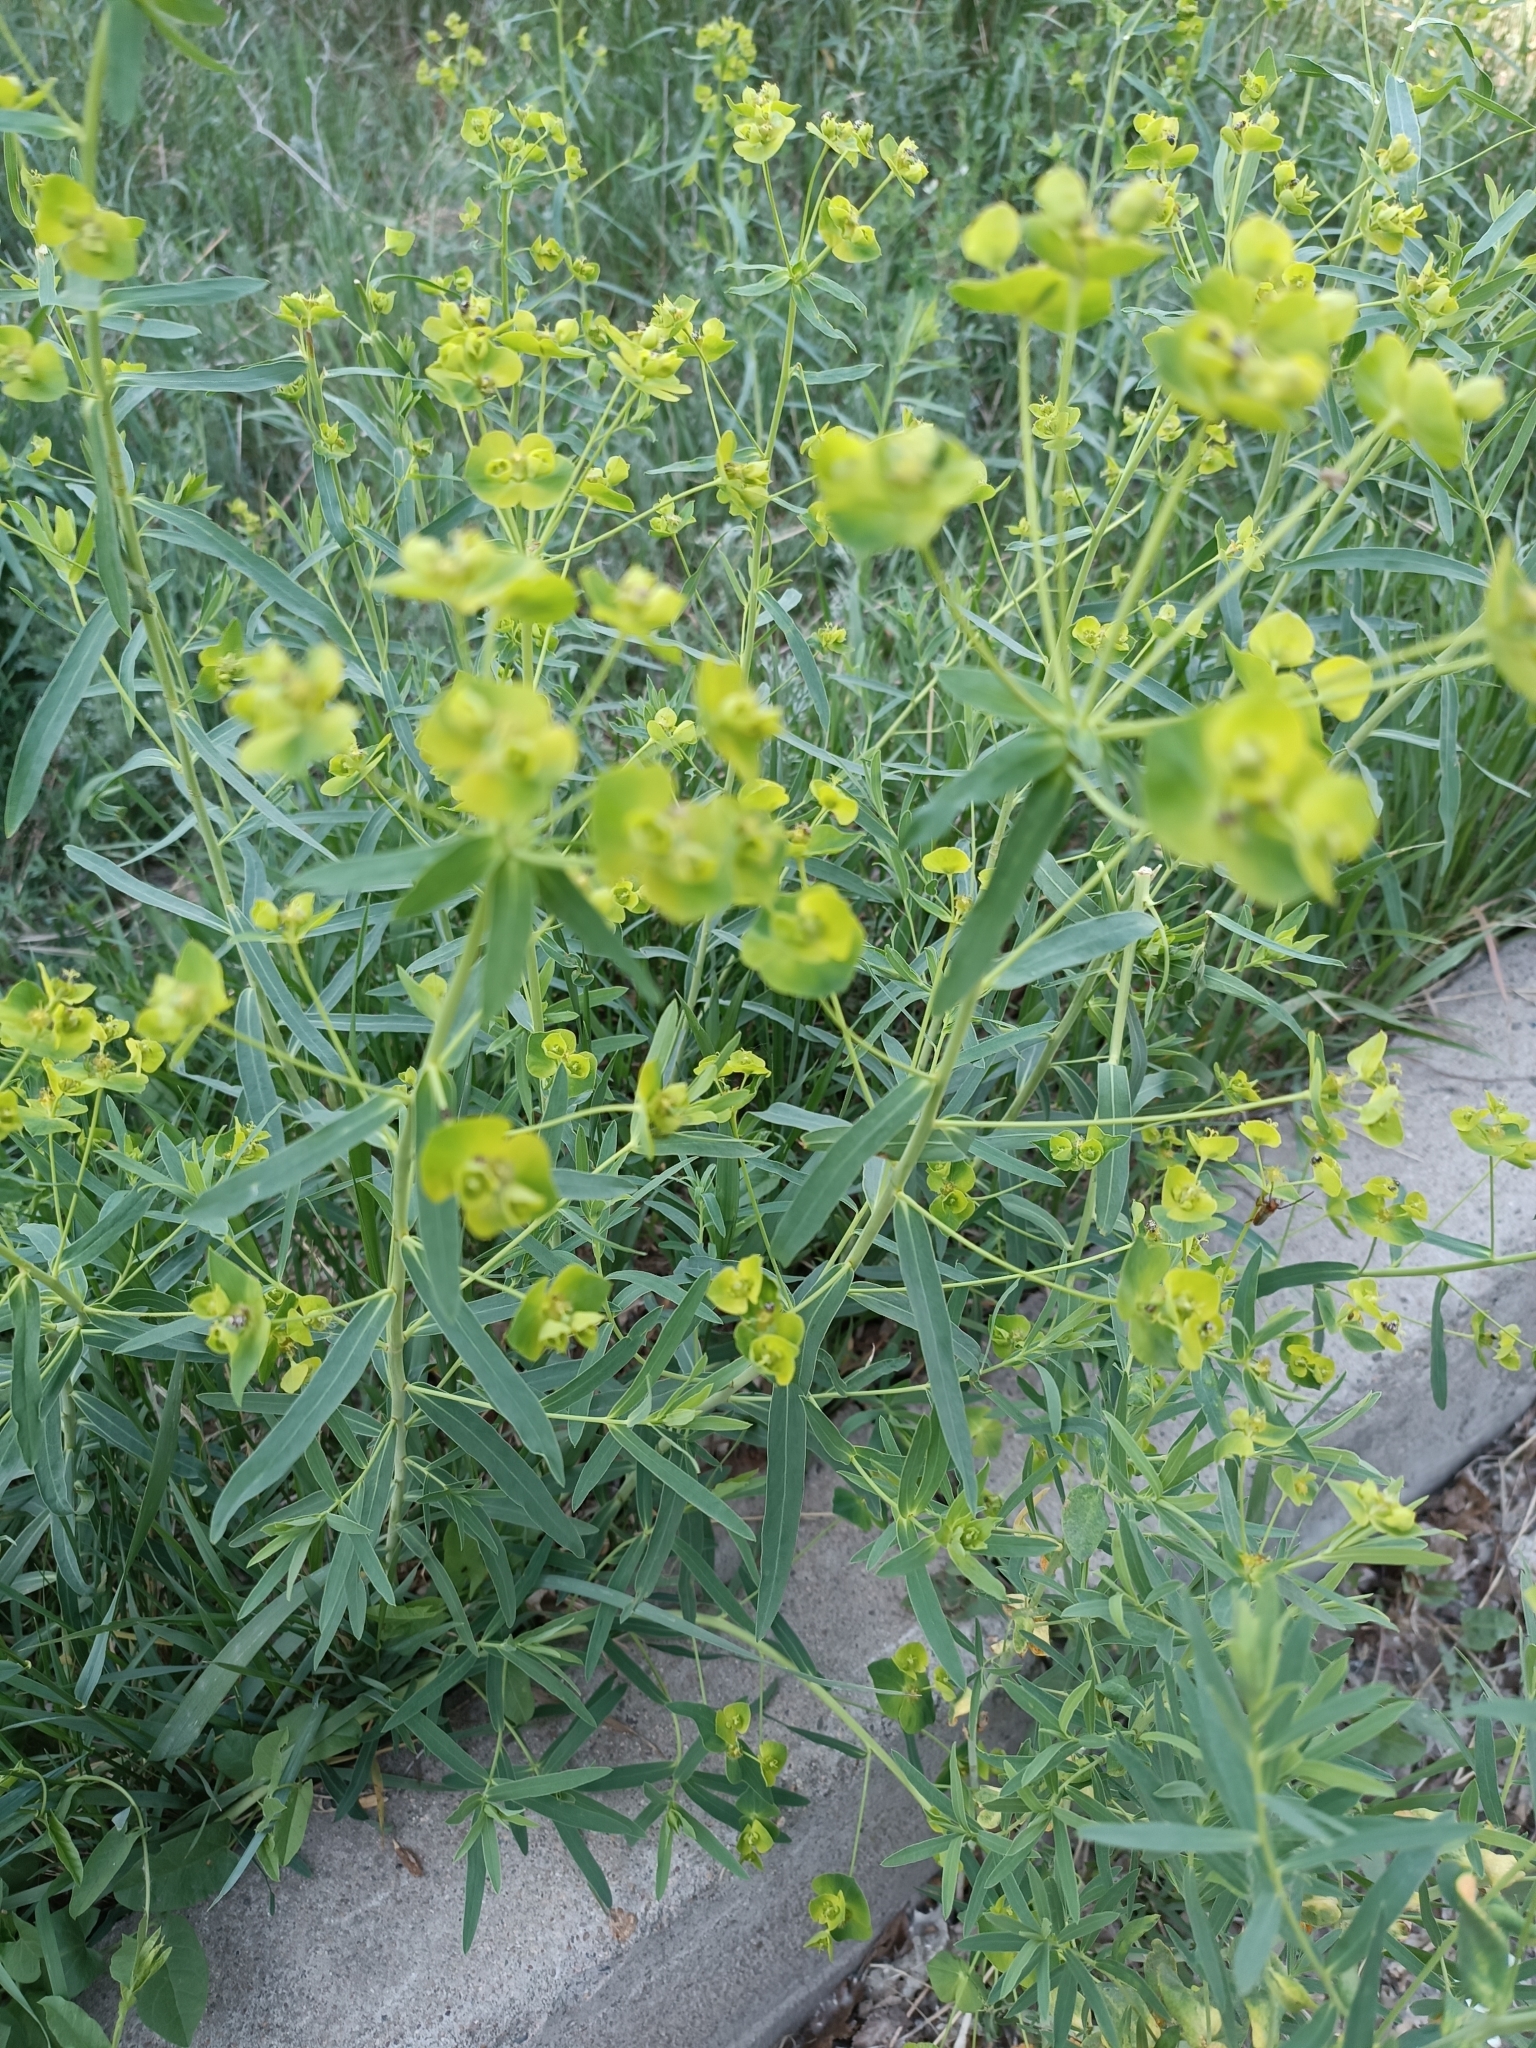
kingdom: Plantae
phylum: Tracheophyta
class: Magnoliopsida
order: Malpighiales
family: Euphorbiaceae
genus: Euphorbia
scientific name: Euphorbia virgata
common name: Leafy spurge
